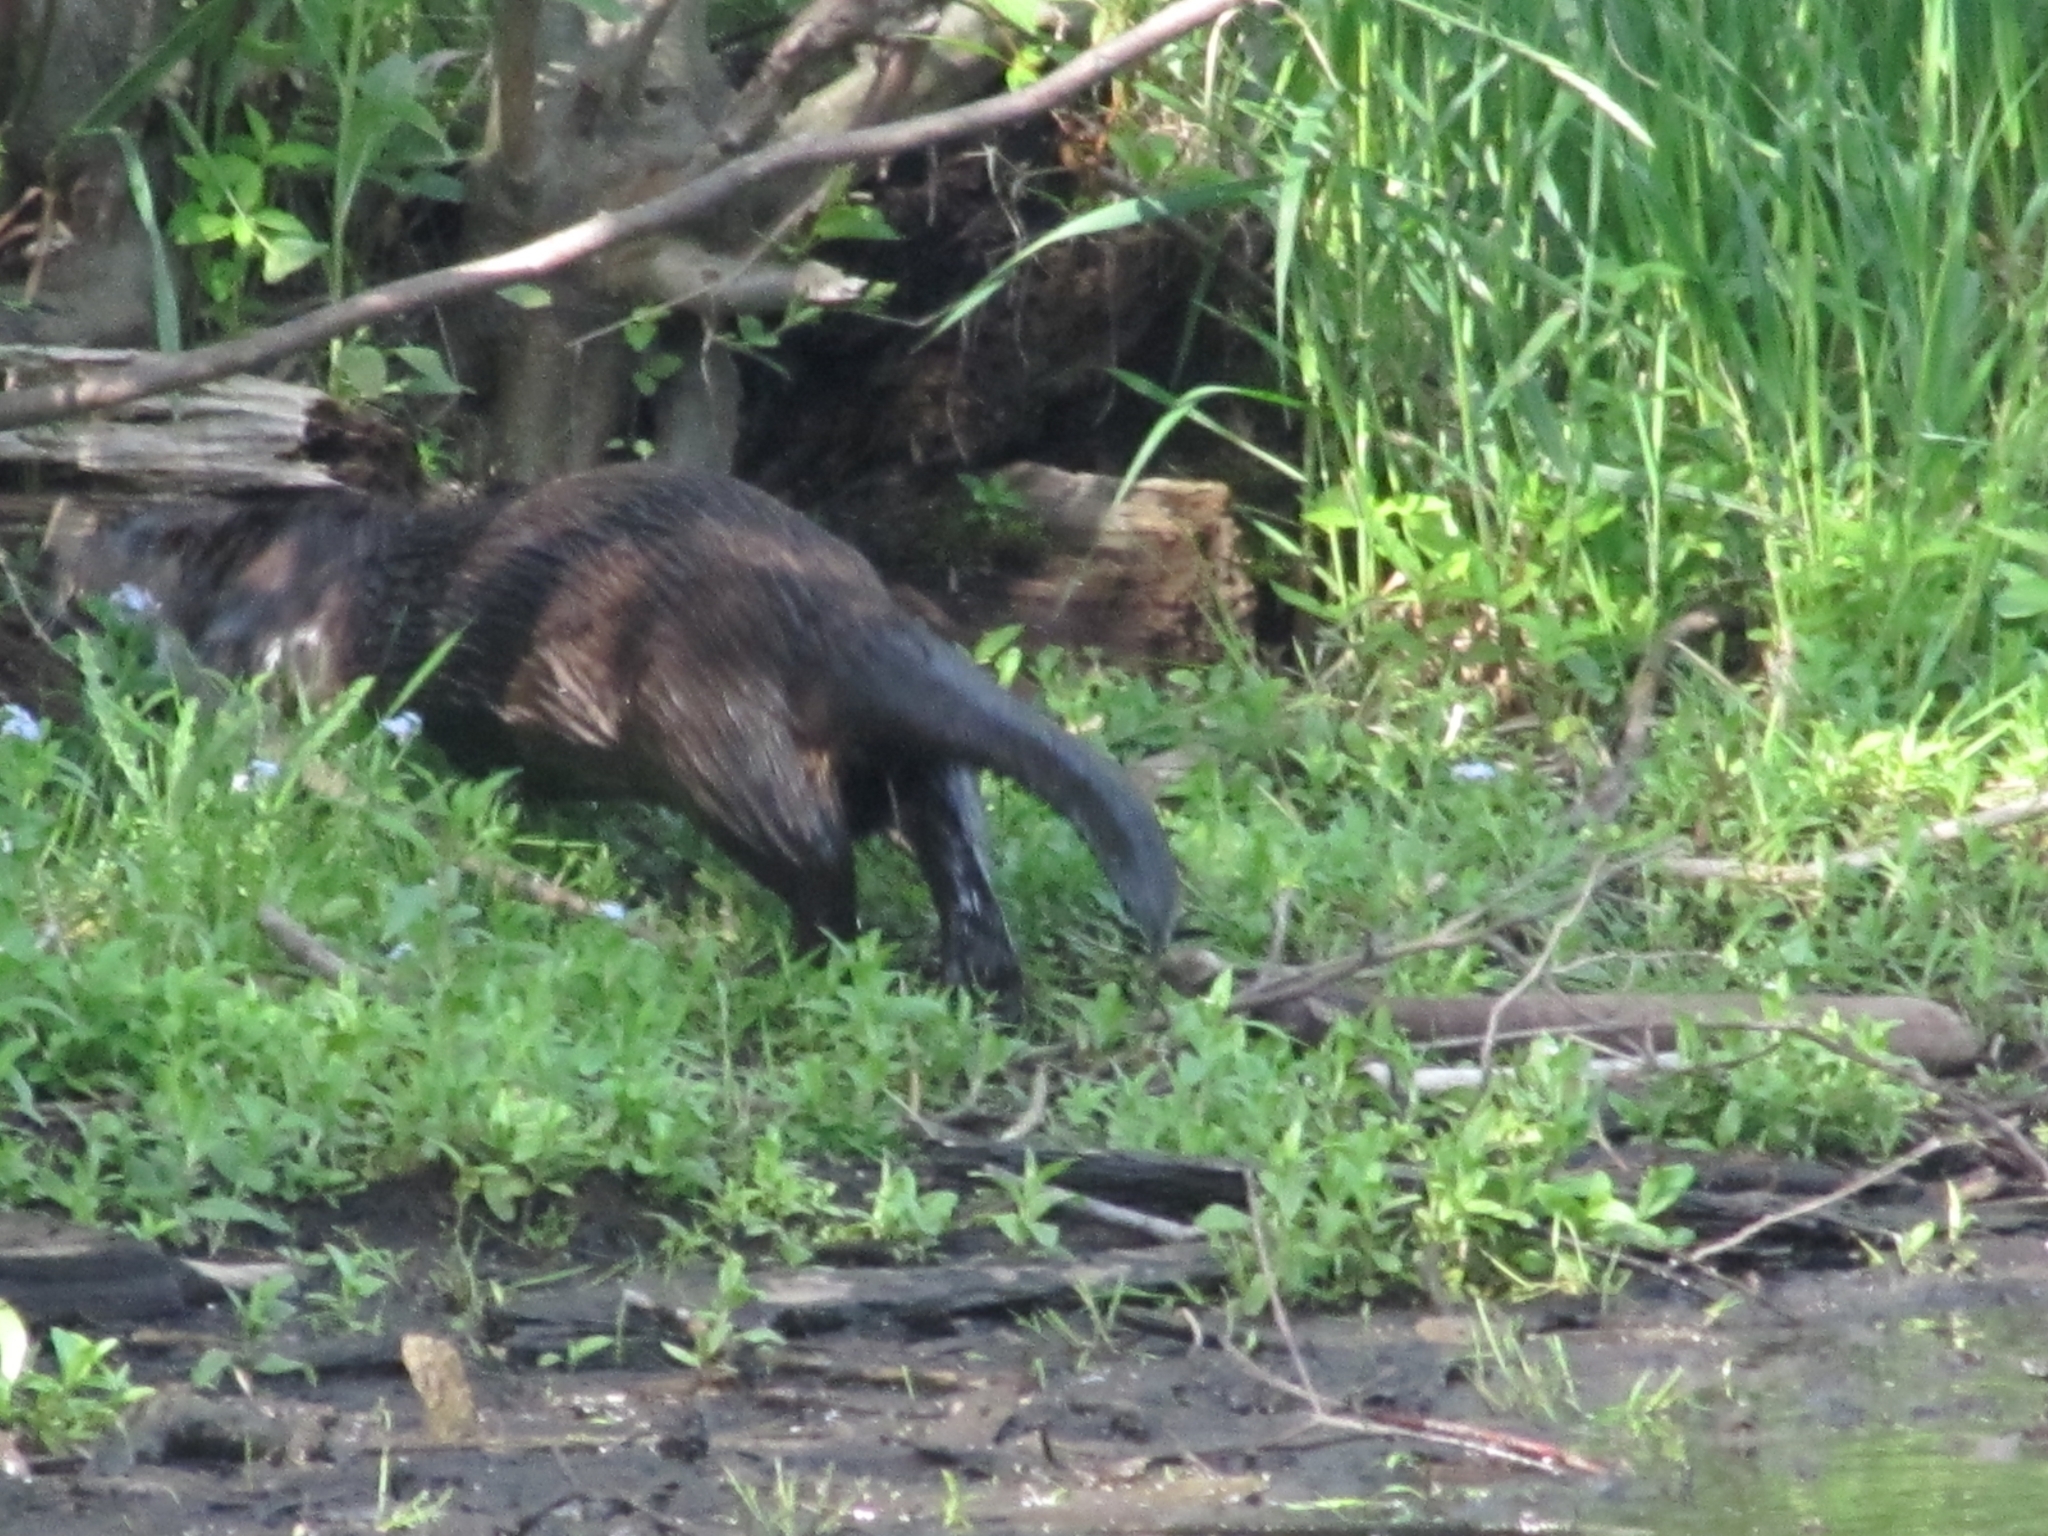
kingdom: Animalia
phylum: Chordata
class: Mammalia
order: Carnivora
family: Mustelidae
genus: Lontra
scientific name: Lontra canadensis
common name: North american river otter
